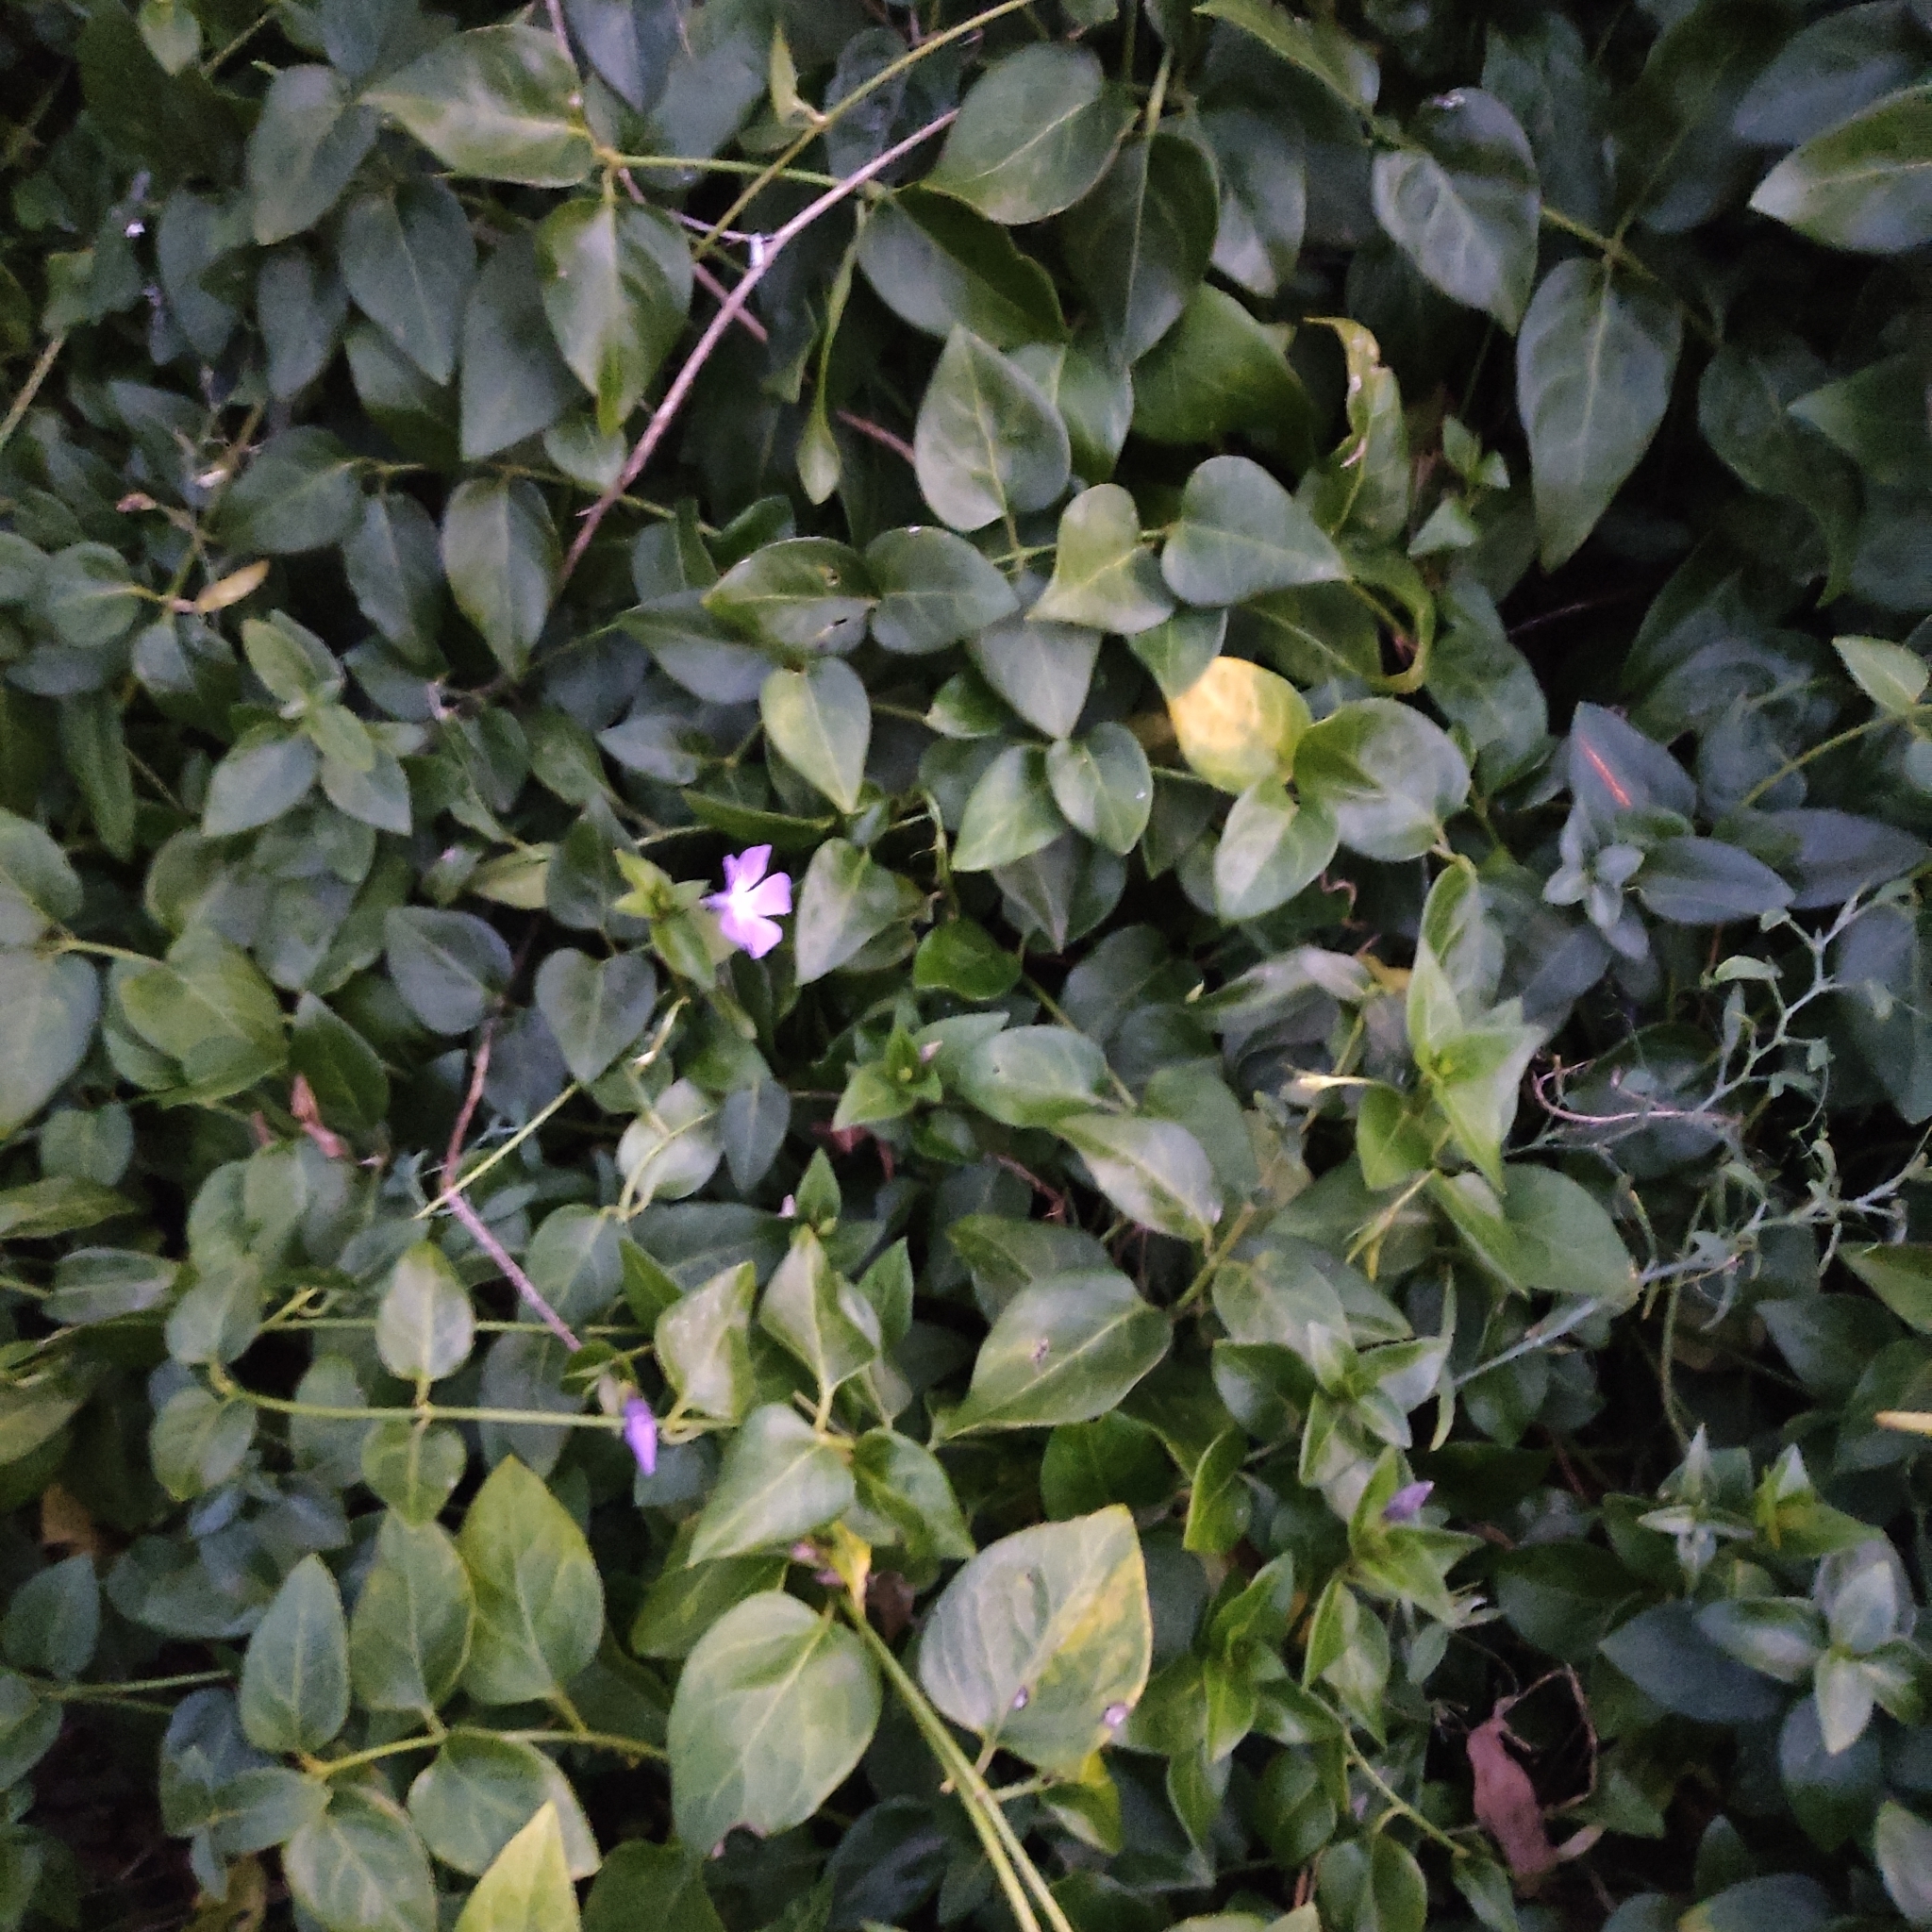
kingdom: Plantae
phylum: Tracheophyta
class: Magnoliopsida
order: Gentianales
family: Apocynaceae
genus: Vinca
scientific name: Vinca major
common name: Greater periwinkle
